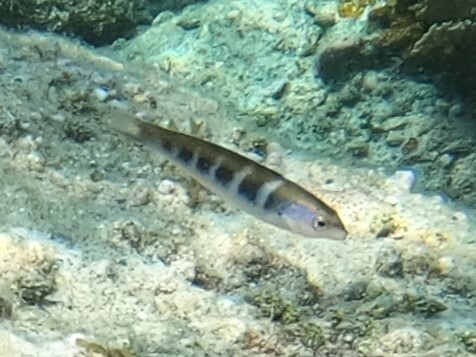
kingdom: Animalia
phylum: Chordata
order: Perciformes
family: Labridae
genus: Thalassoma
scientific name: Thalassoma bifasciatum
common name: Bluehead wrasse
